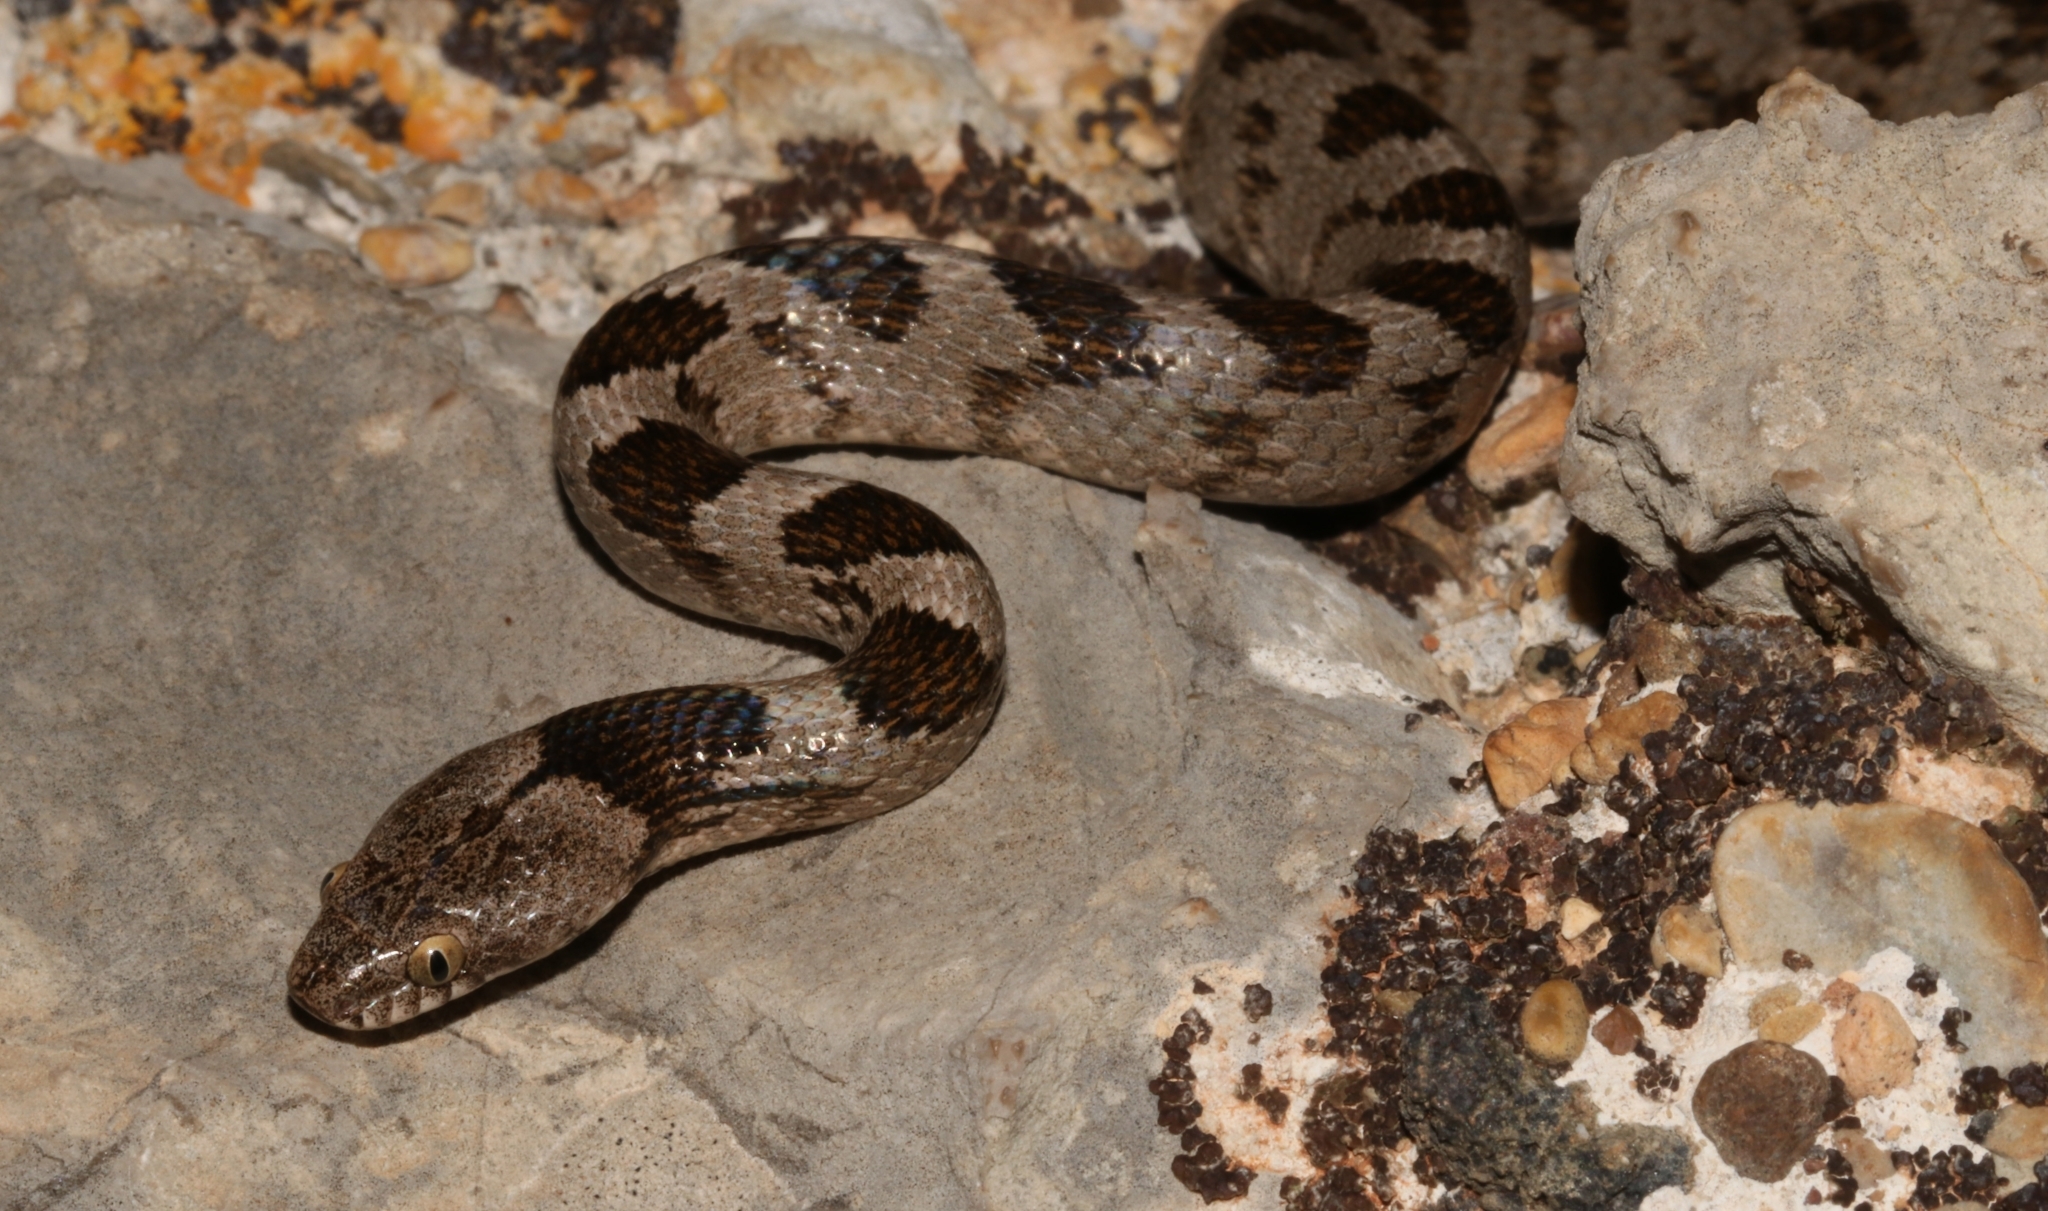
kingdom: Animalia
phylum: Chordata
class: Squamata
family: Colubridae
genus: Telescopus
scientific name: Telescopus fallax
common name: Cat snake
